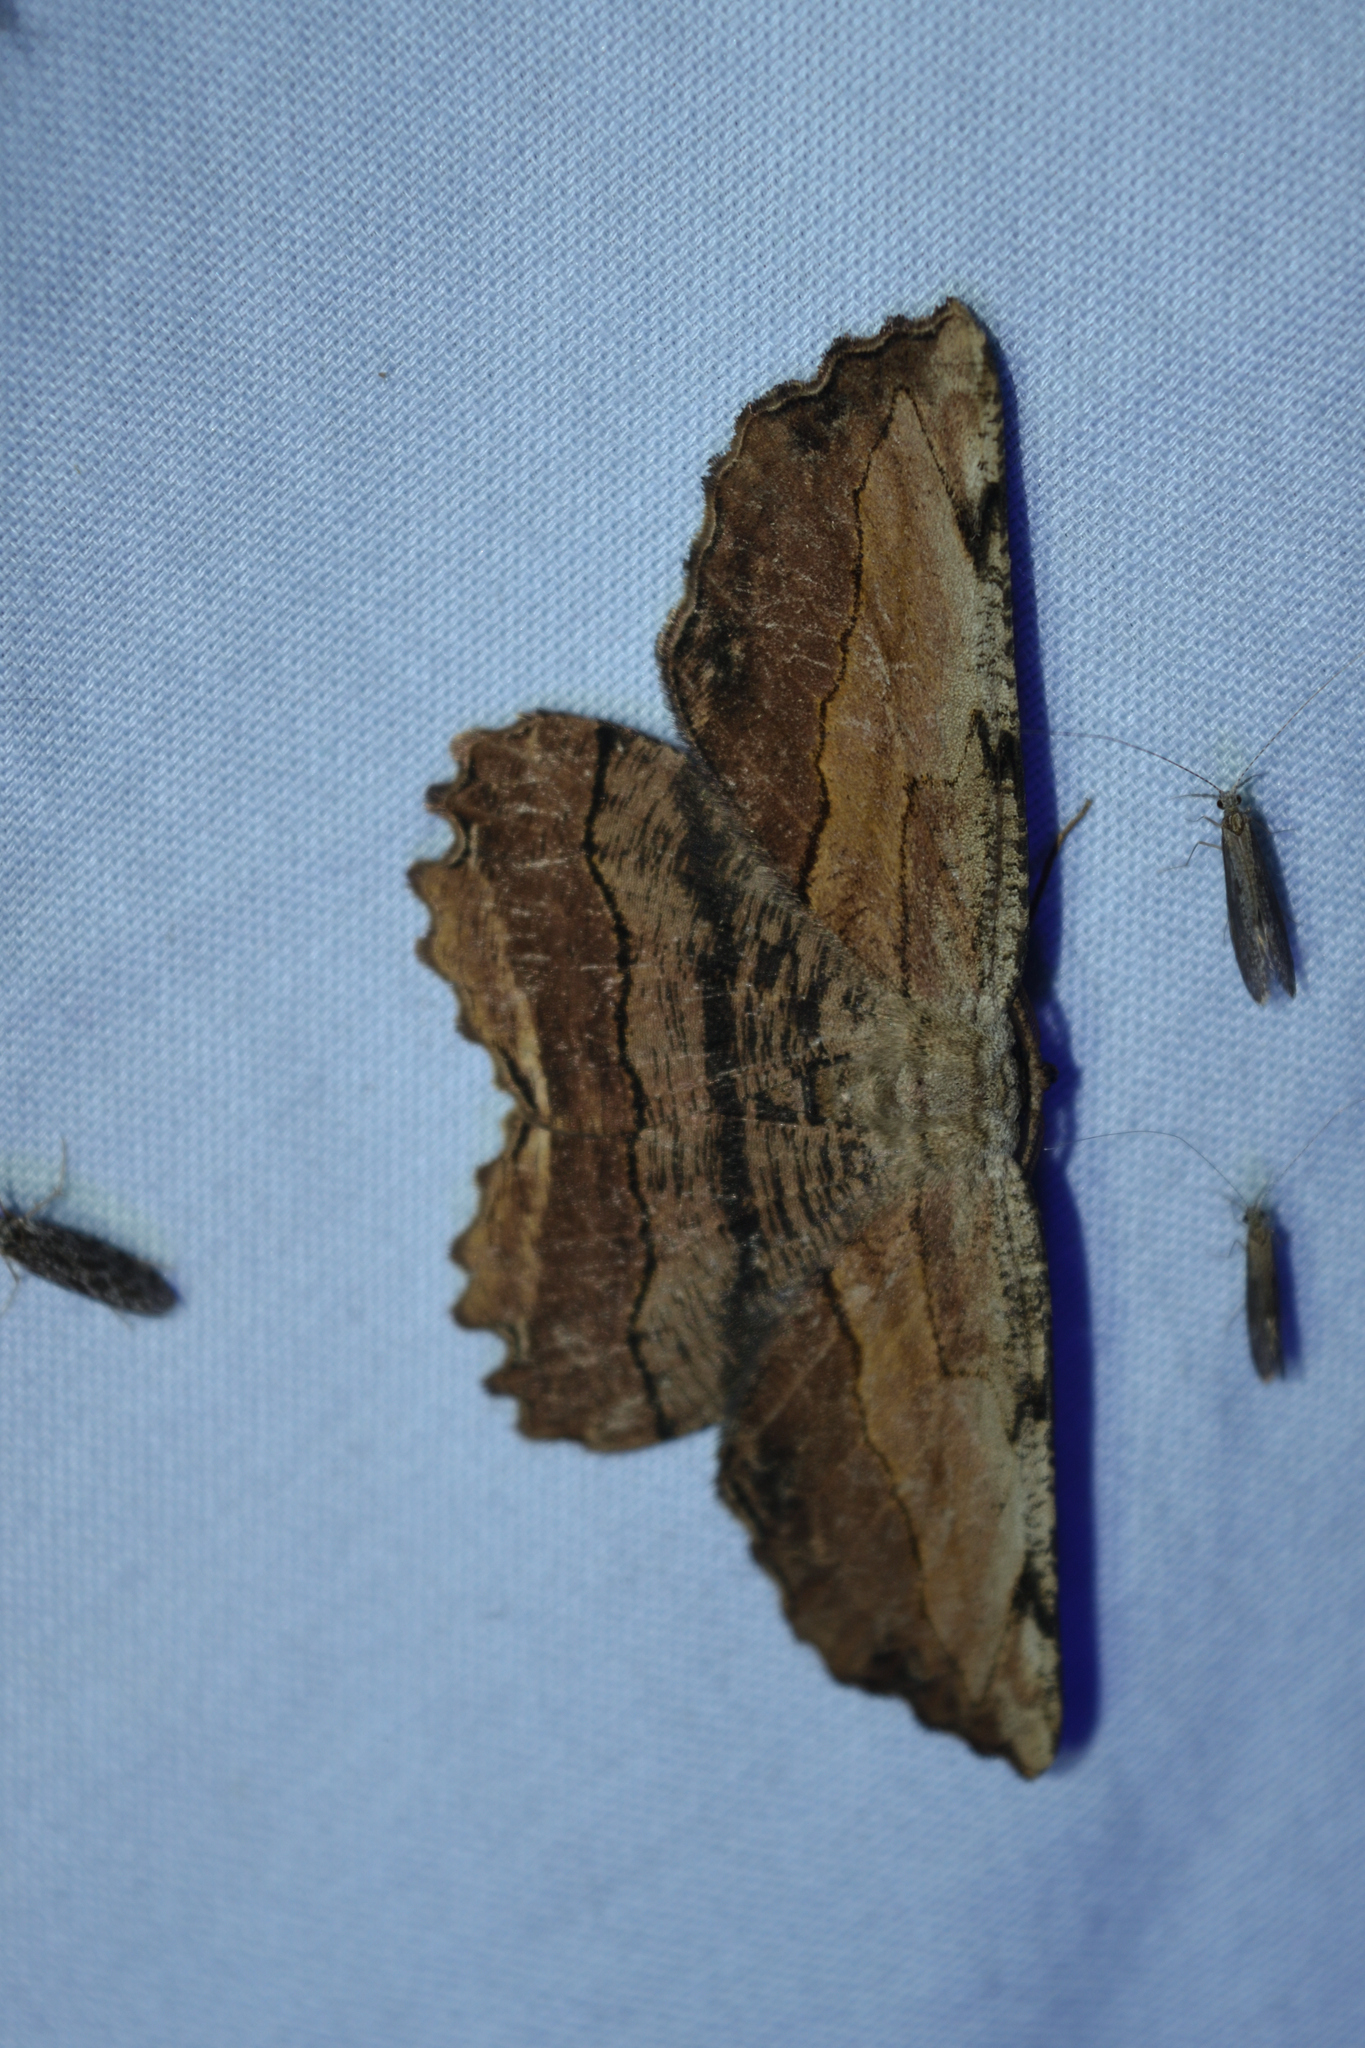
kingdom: Animalia
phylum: Arthropoda
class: Insecta
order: Lepidoptera
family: Geometridae
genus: Lytrosis
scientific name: Lytrosis unitaria
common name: Common lytrosis
